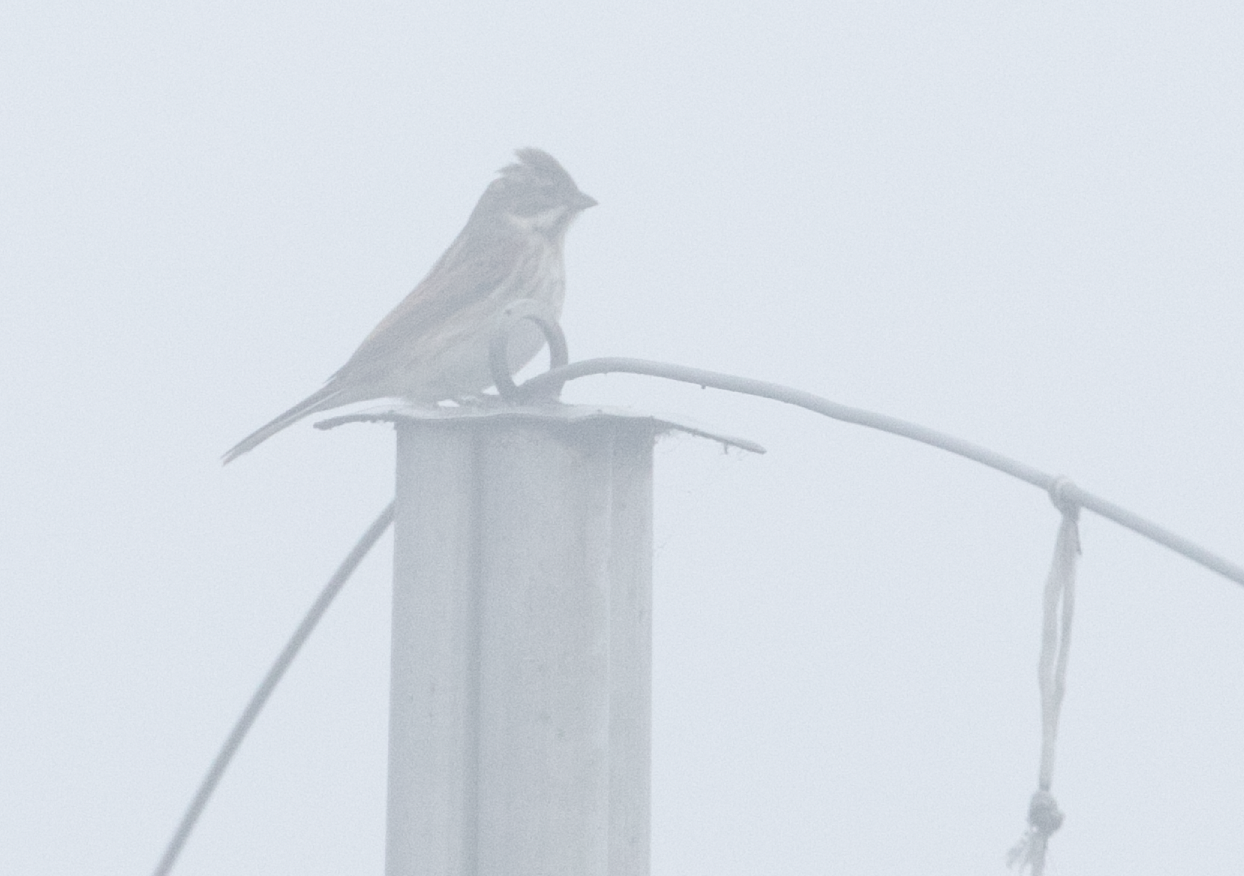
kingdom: Animalia
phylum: Chordata
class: Aves
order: Passeriformes
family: Emberizidae
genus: Emberiza
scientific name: Emberiza schoeniclus
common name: Reed bunting
